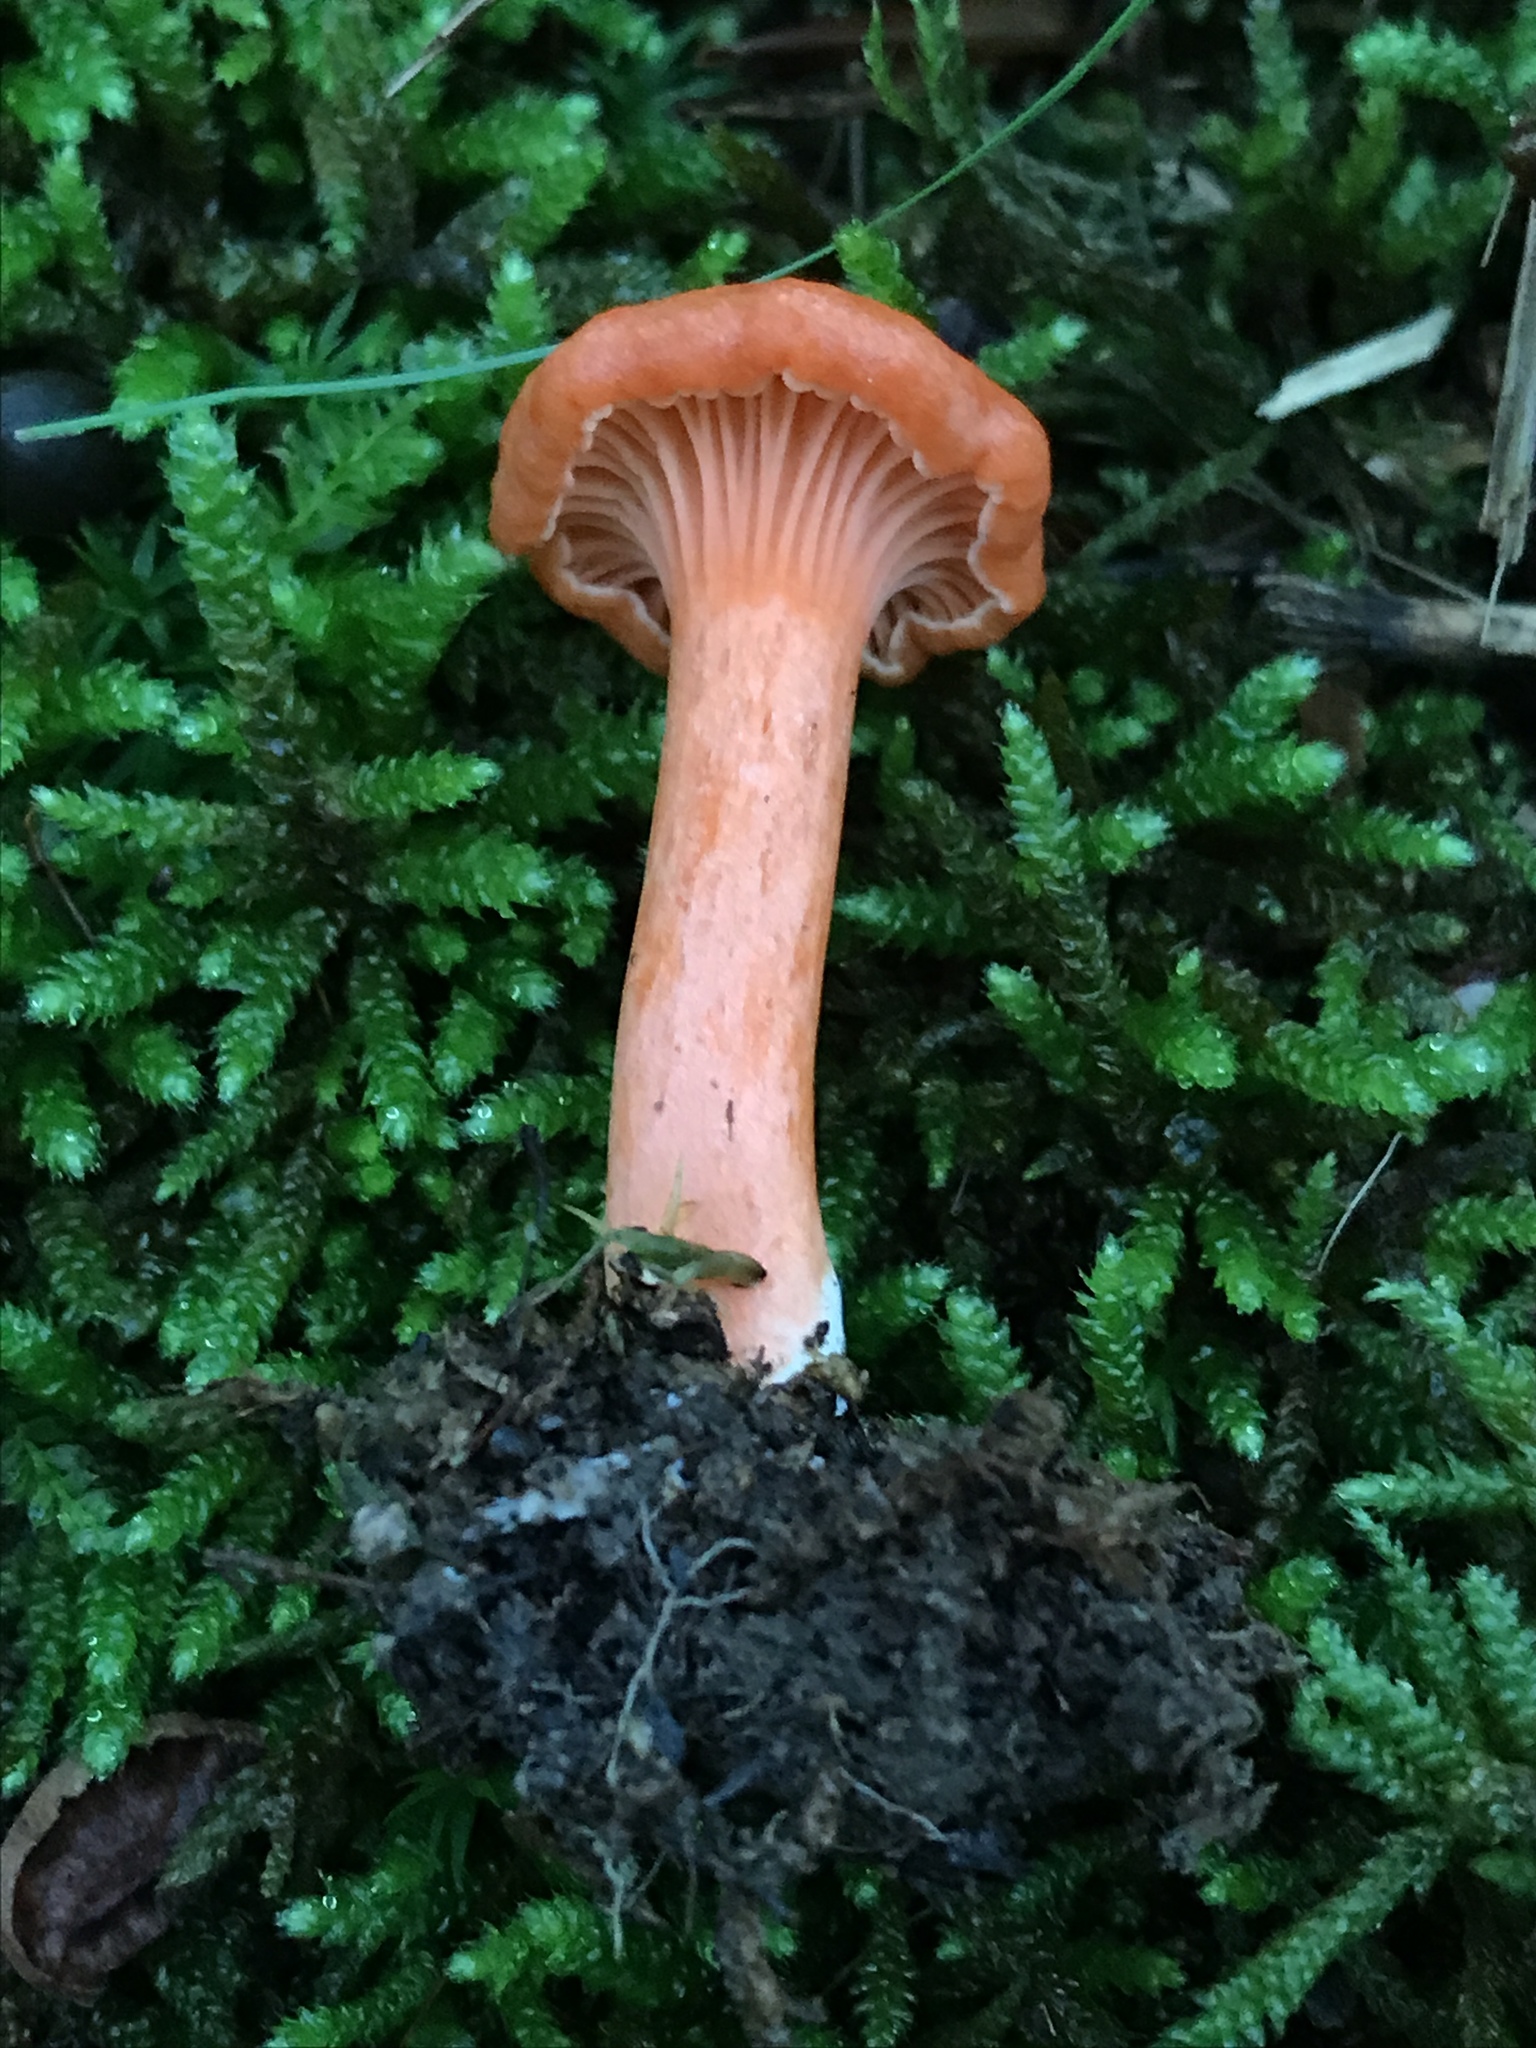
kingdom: Fungi
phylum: Basidiomycota
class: Agaricomycetes
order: Cantharellales
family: Hydnaceae
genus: Cantharellus
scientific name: Cantharellus corallinus
